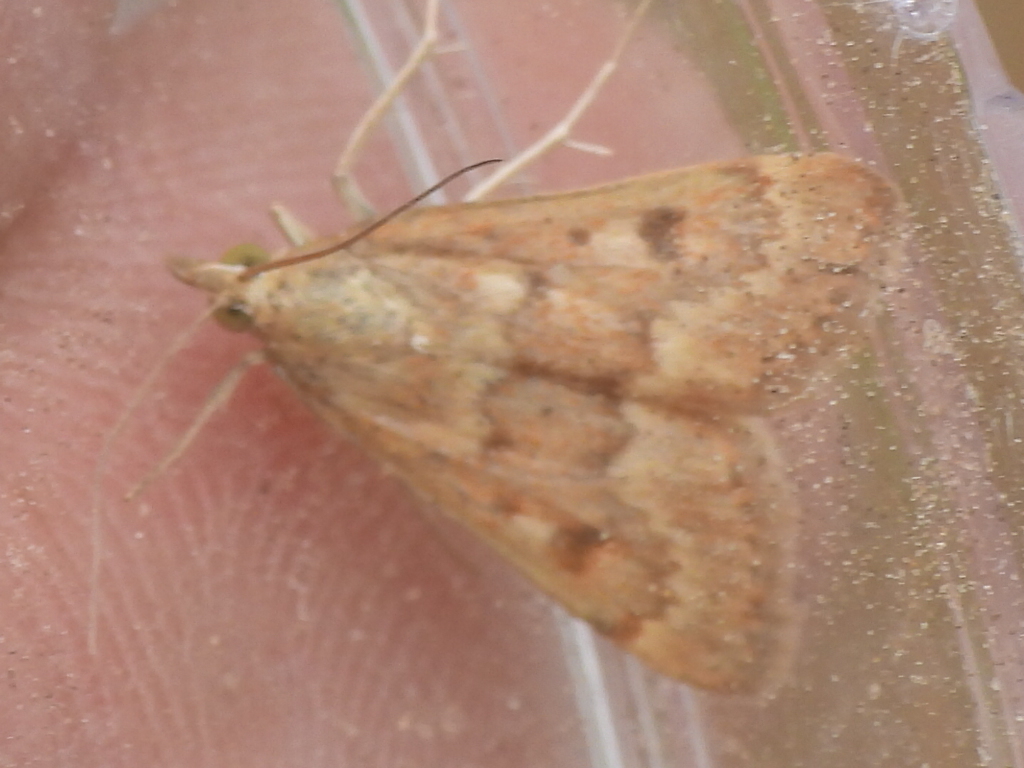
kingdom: Animalia
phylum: Arthropoda
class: Insecta
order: Lepidoptera
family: Crambidae
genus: Achyra
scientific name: Achyra rantalis
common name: Garden webworm
